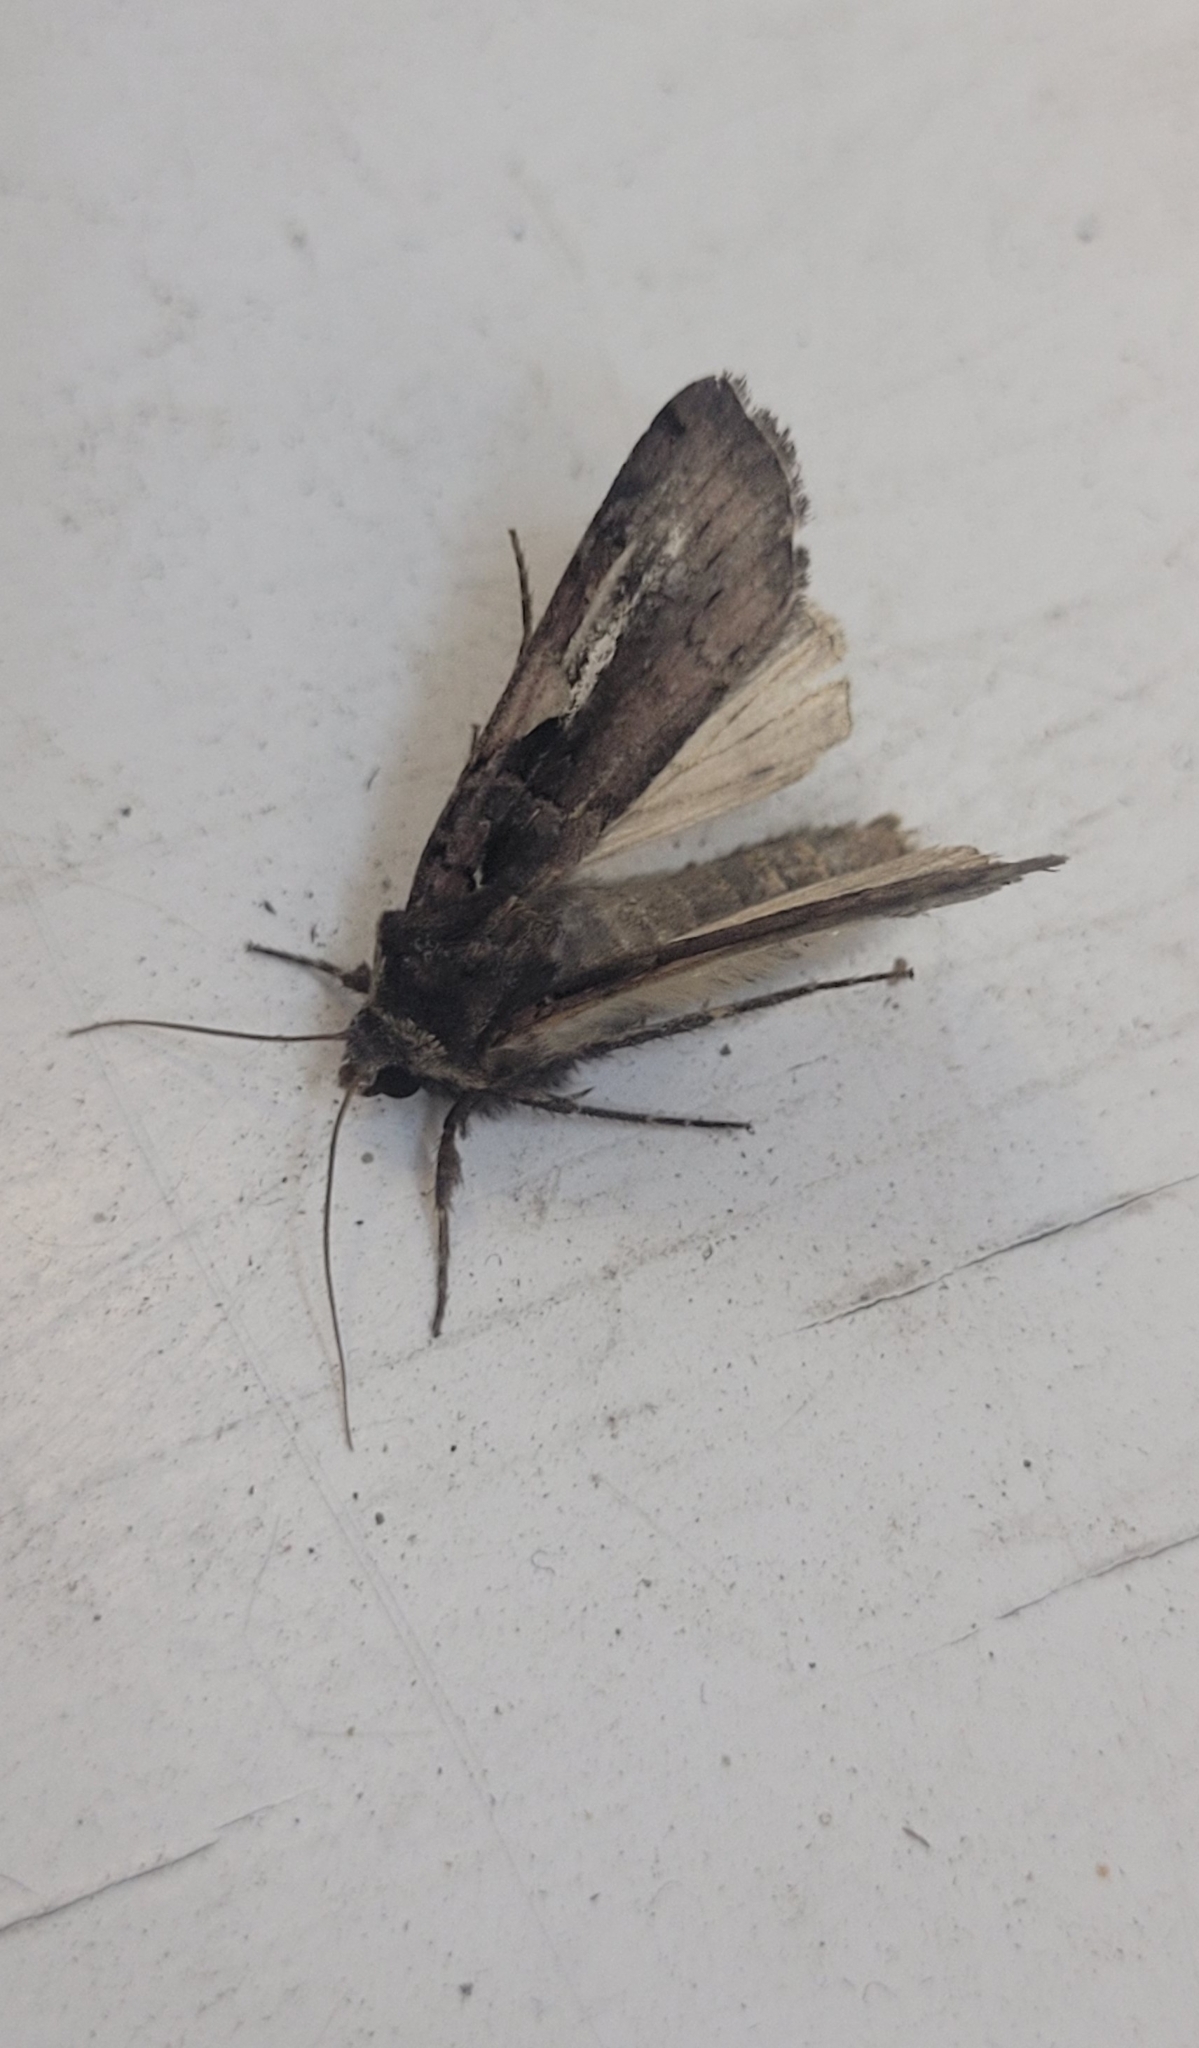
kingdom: Animalia
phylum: Arthropoda
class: Insecta
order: Lepidoptera
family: Noctuidae
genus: Xestia
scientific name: Xestia c-nigrum
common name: Setaceous hebrew character
